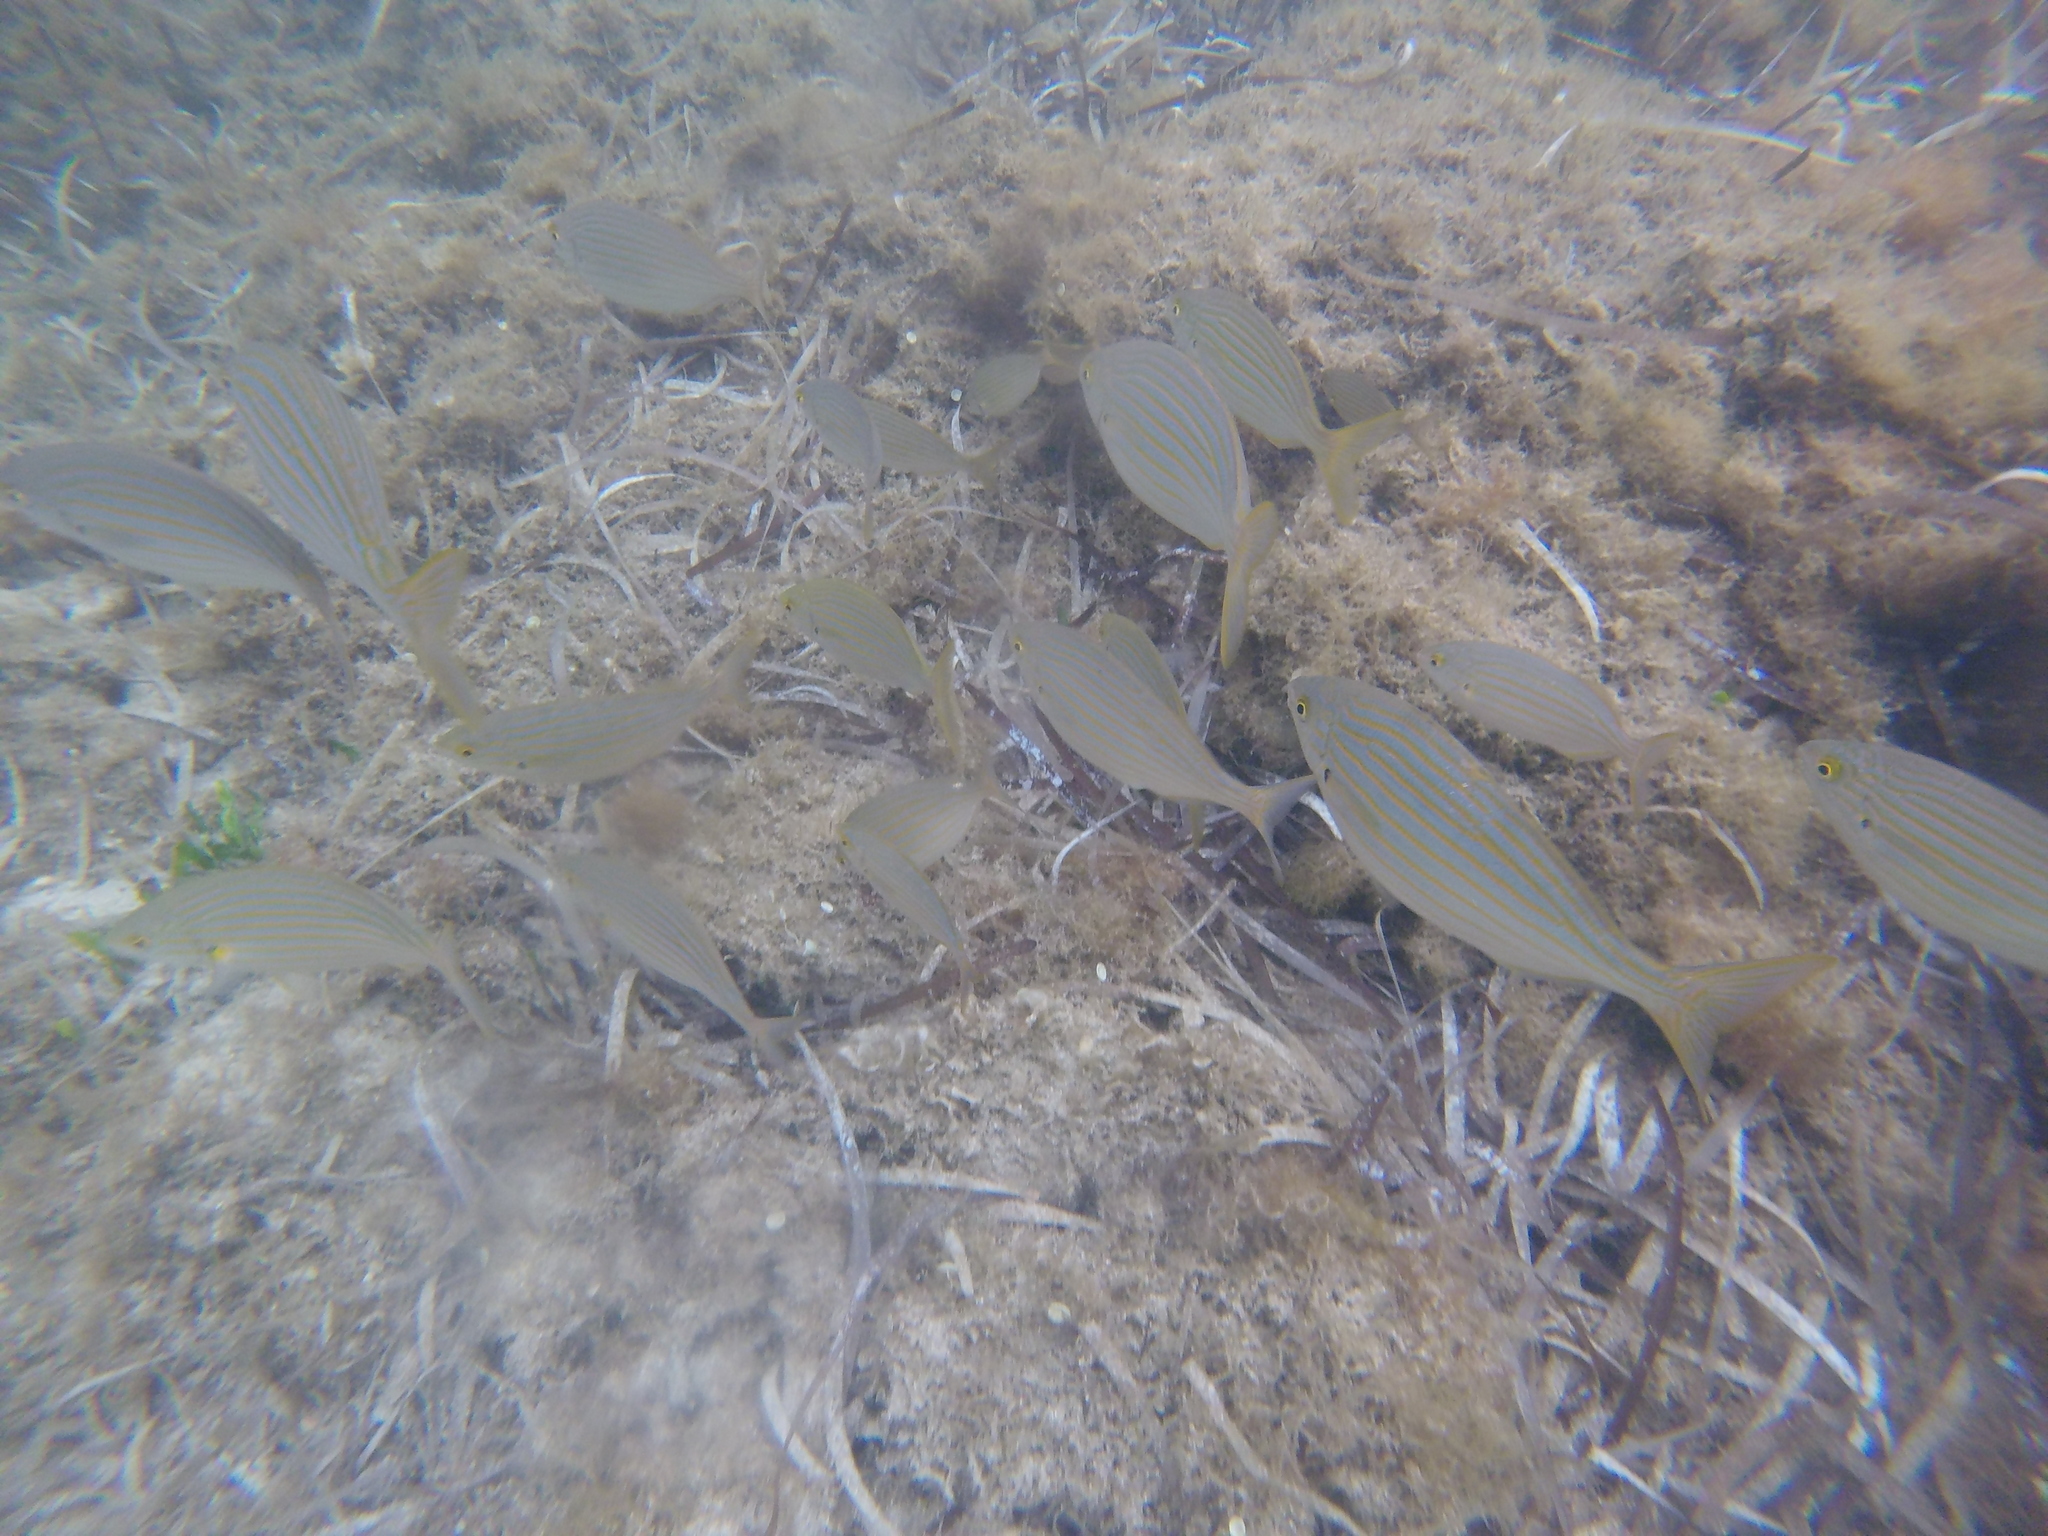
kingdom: Animalia
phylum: Chordata
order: Perciformes
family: Sparidae
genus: Sarpa
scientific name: Sarpa salpa
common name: Salema
